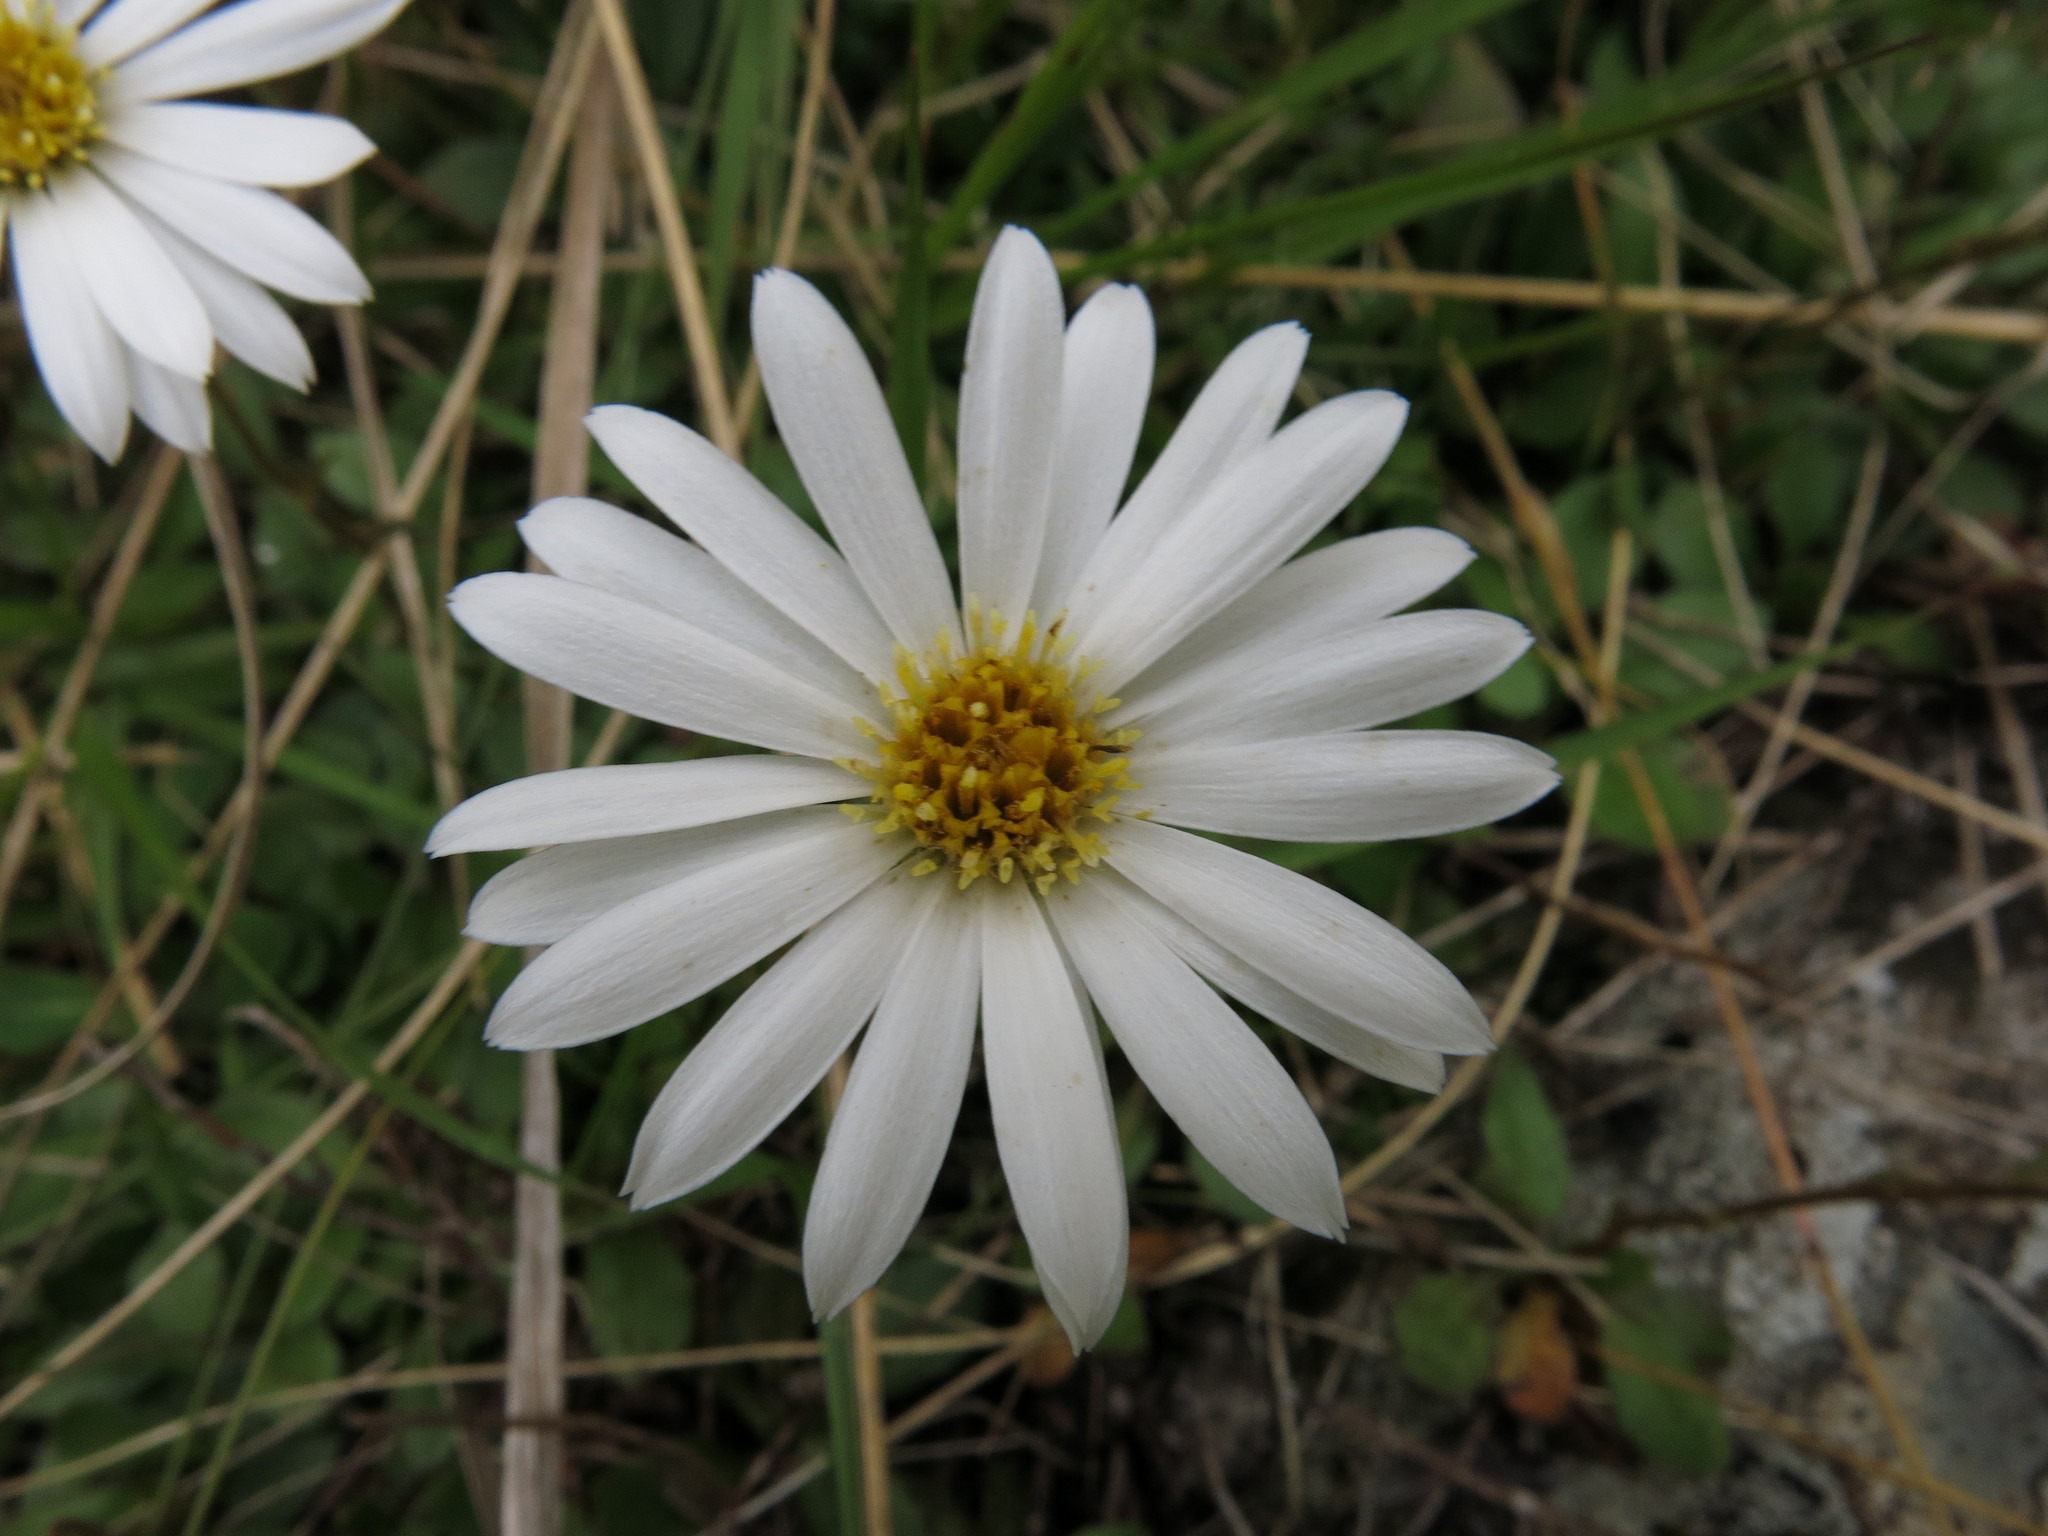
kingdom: Plantae
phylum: Tracheophyta
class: Magnoliopsida
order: Asterales
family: Asteraceae
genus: Celmisia
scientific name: Celmisia glandulosa
